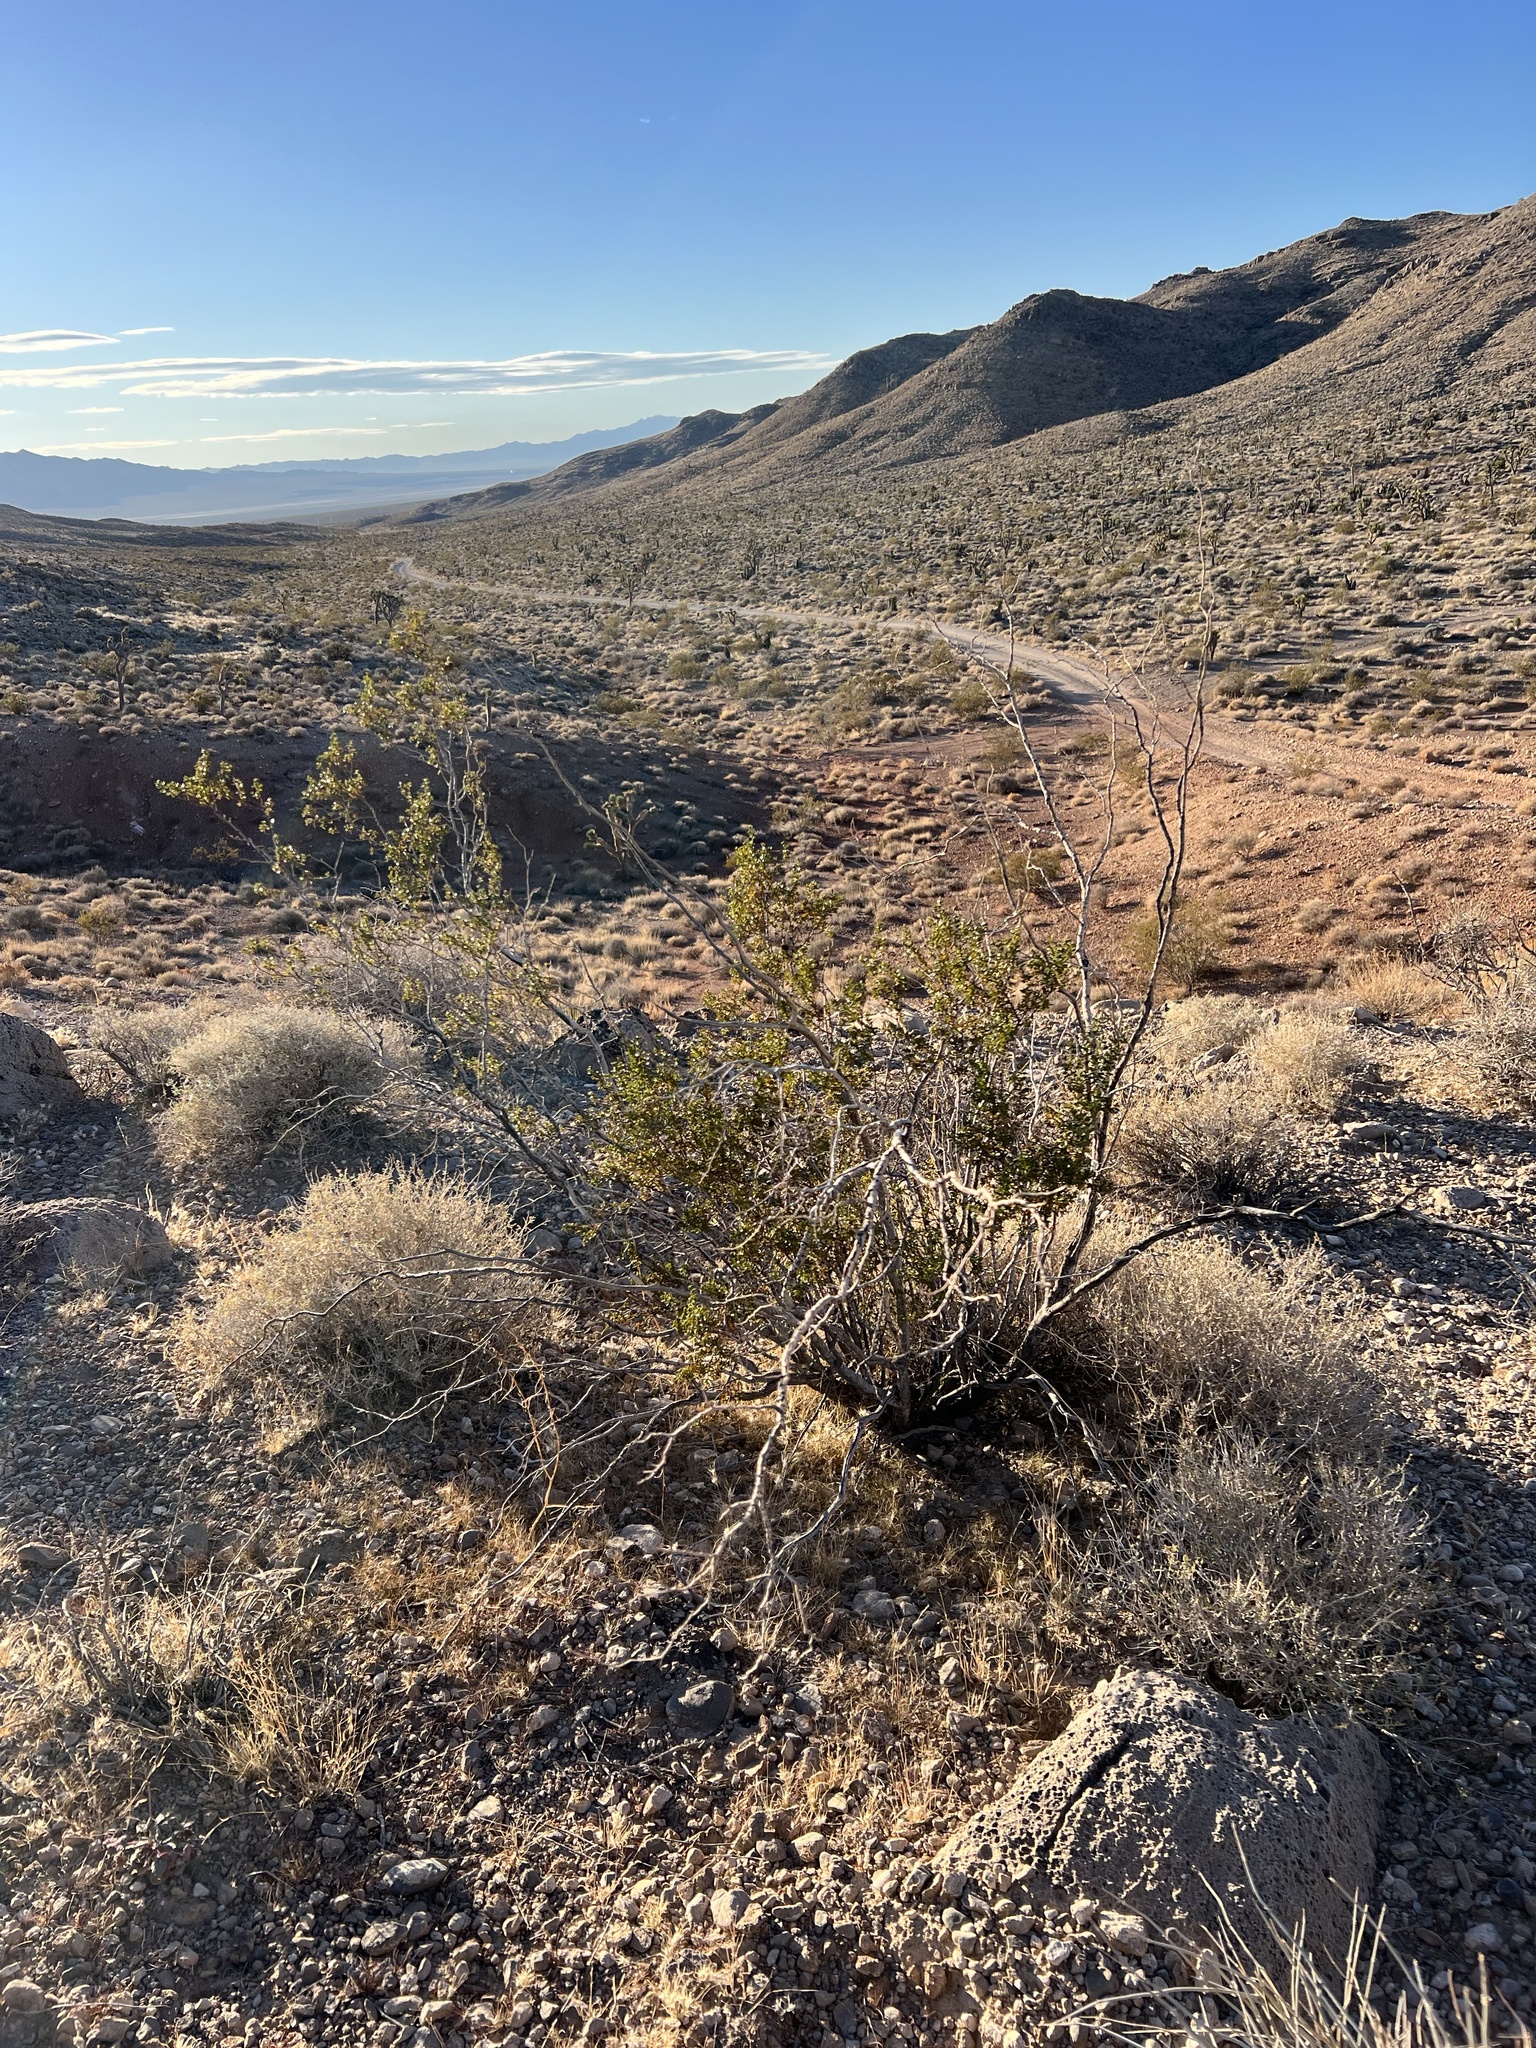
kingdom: Plantae
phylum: Tracheophyta
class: Magnoliopsida
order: Zygophyllales
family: Zygophyllaceae
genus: Larrea
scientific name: Larrea tridentata
